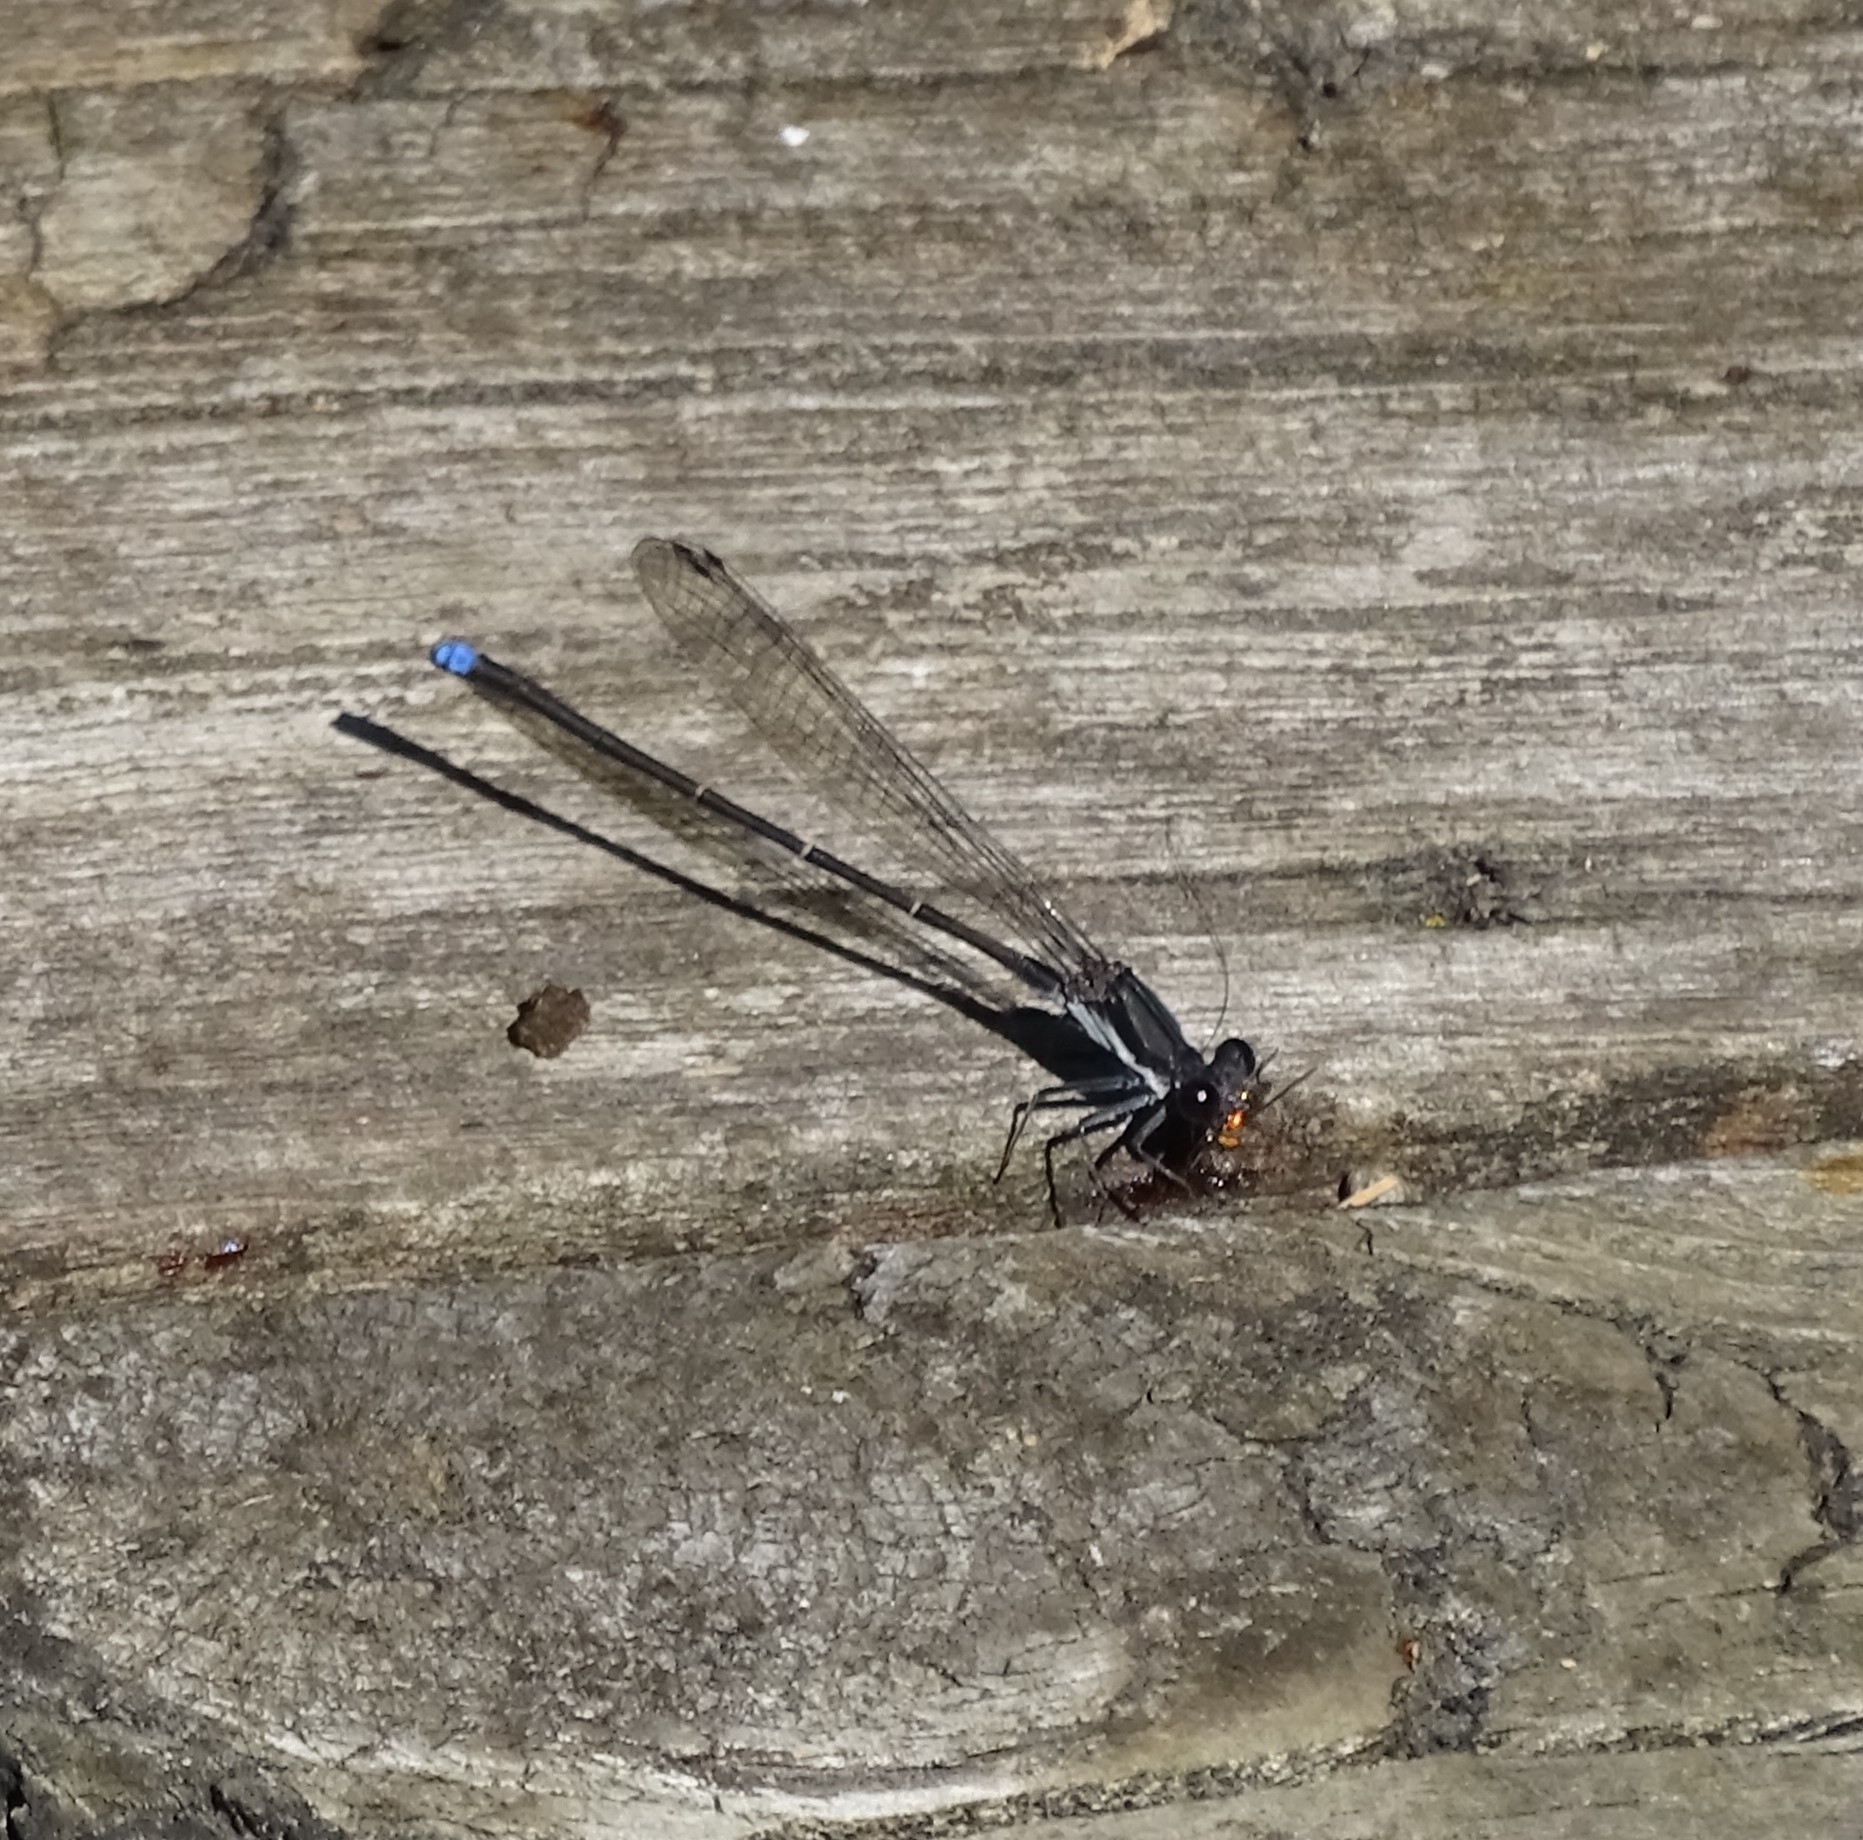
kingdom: Animalia
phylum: Arthropoda
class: Insecta
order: Odonata
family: Coenagrionidae
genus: Argia
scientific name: Argia tibialis
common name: Blue-tipped dancer
